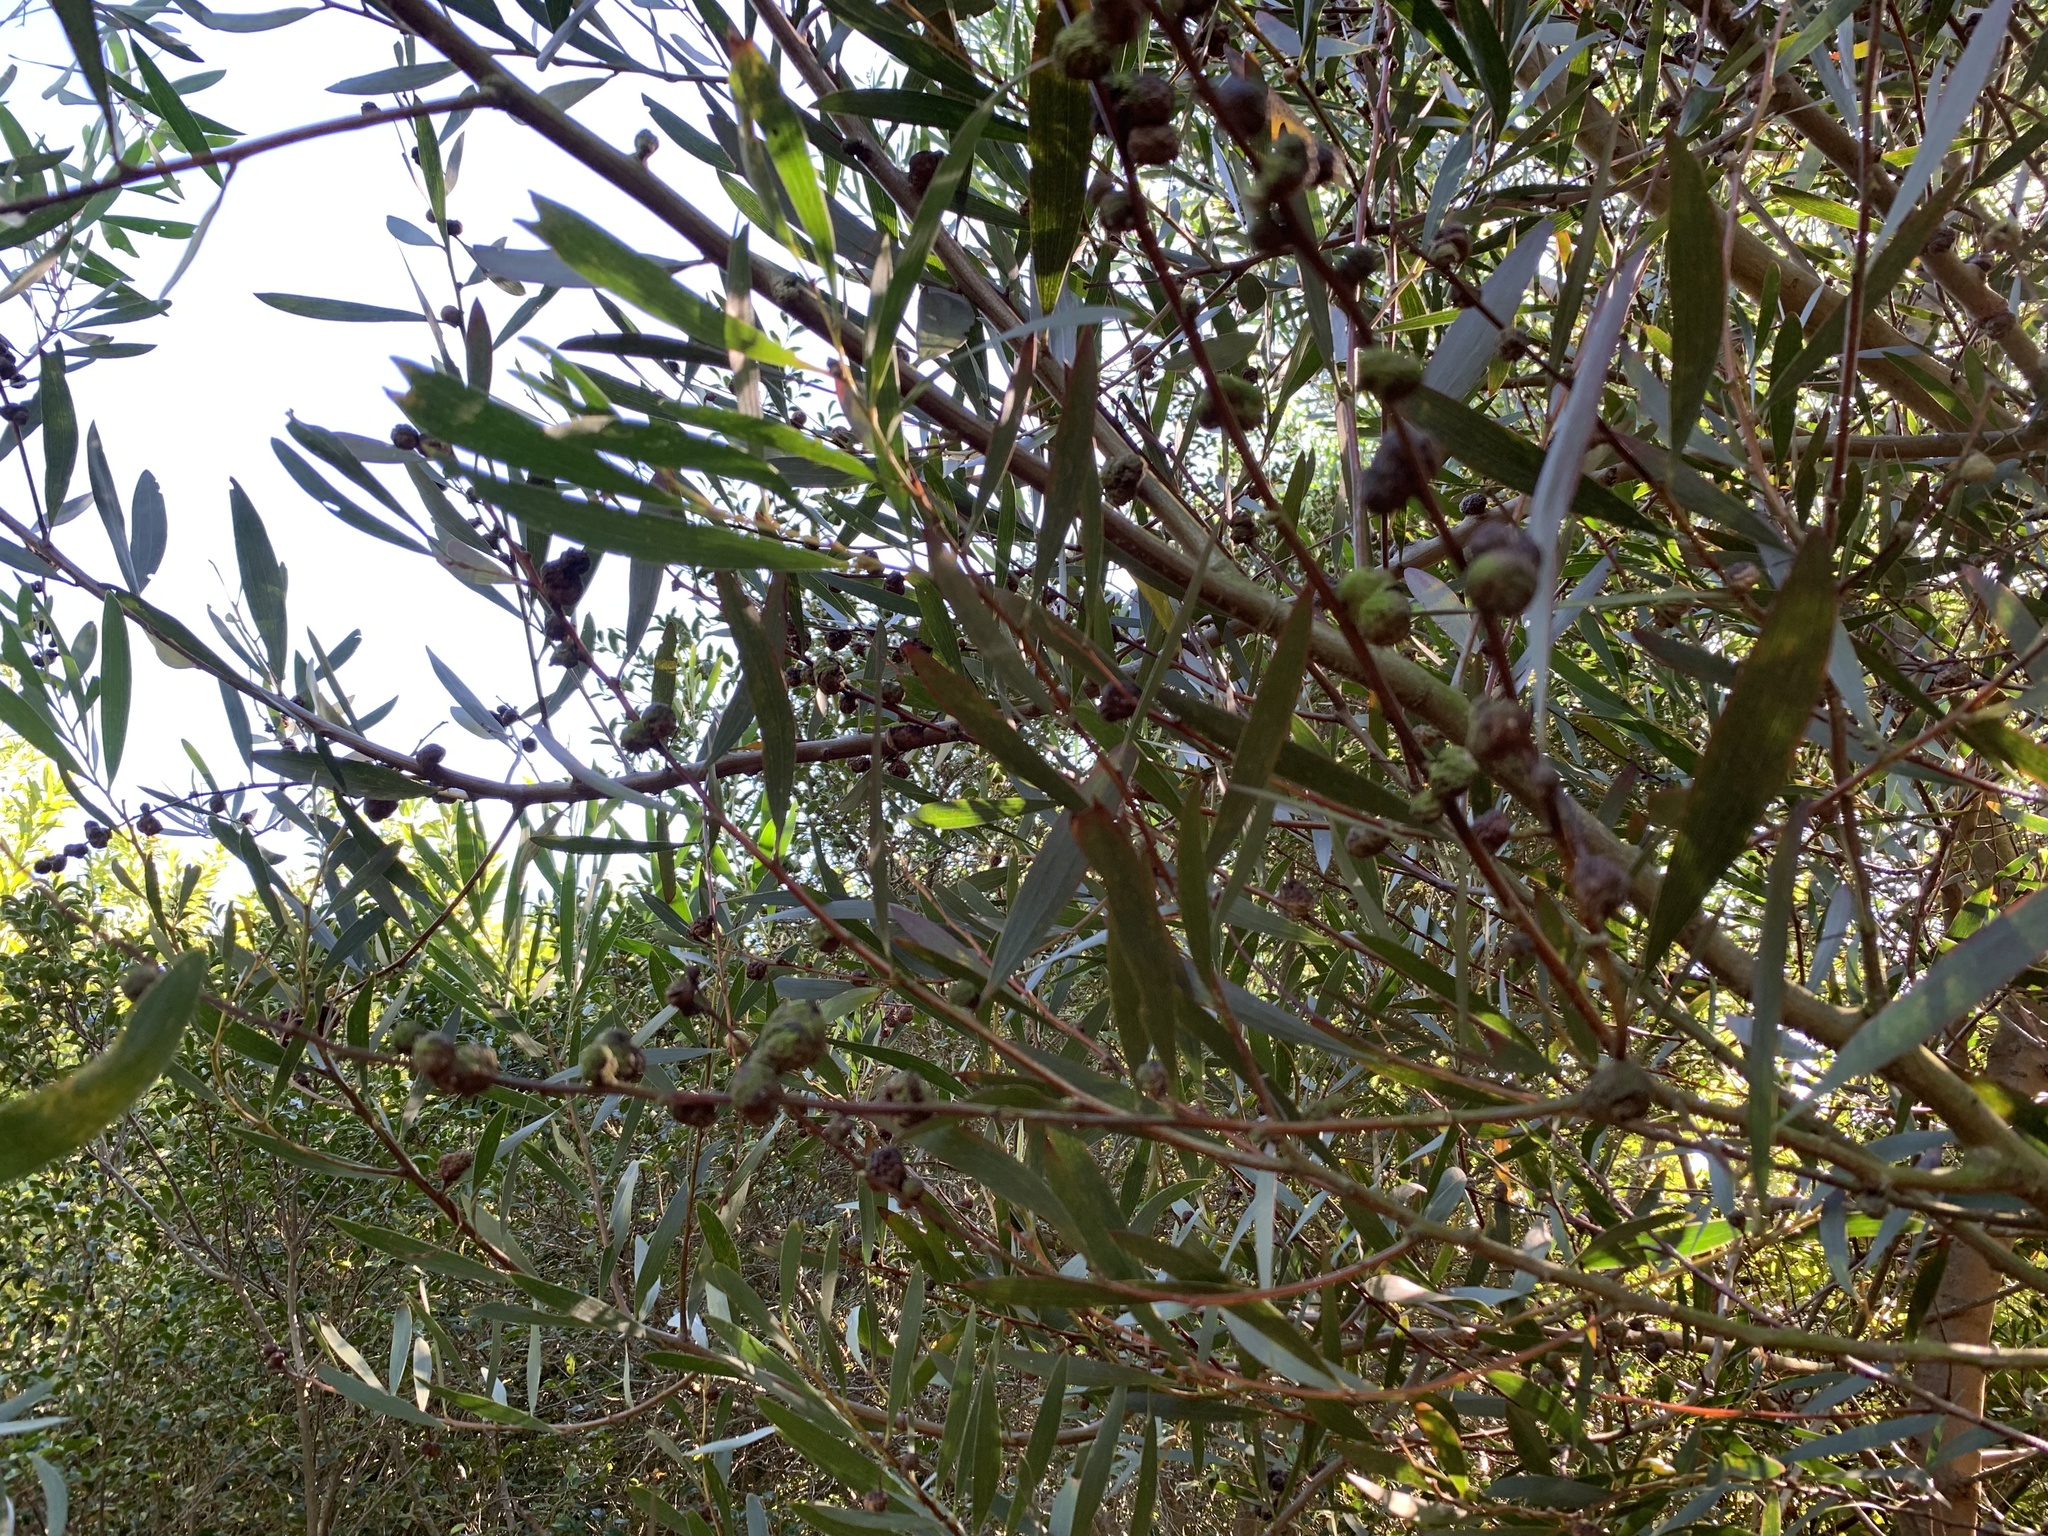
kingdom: Plantae
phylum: Tracheophyta
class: Magnoliopsida
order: Fabales
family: Fabaceae
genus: Acacia
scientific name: Acacia longifolia
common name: Sydney golden wattle
